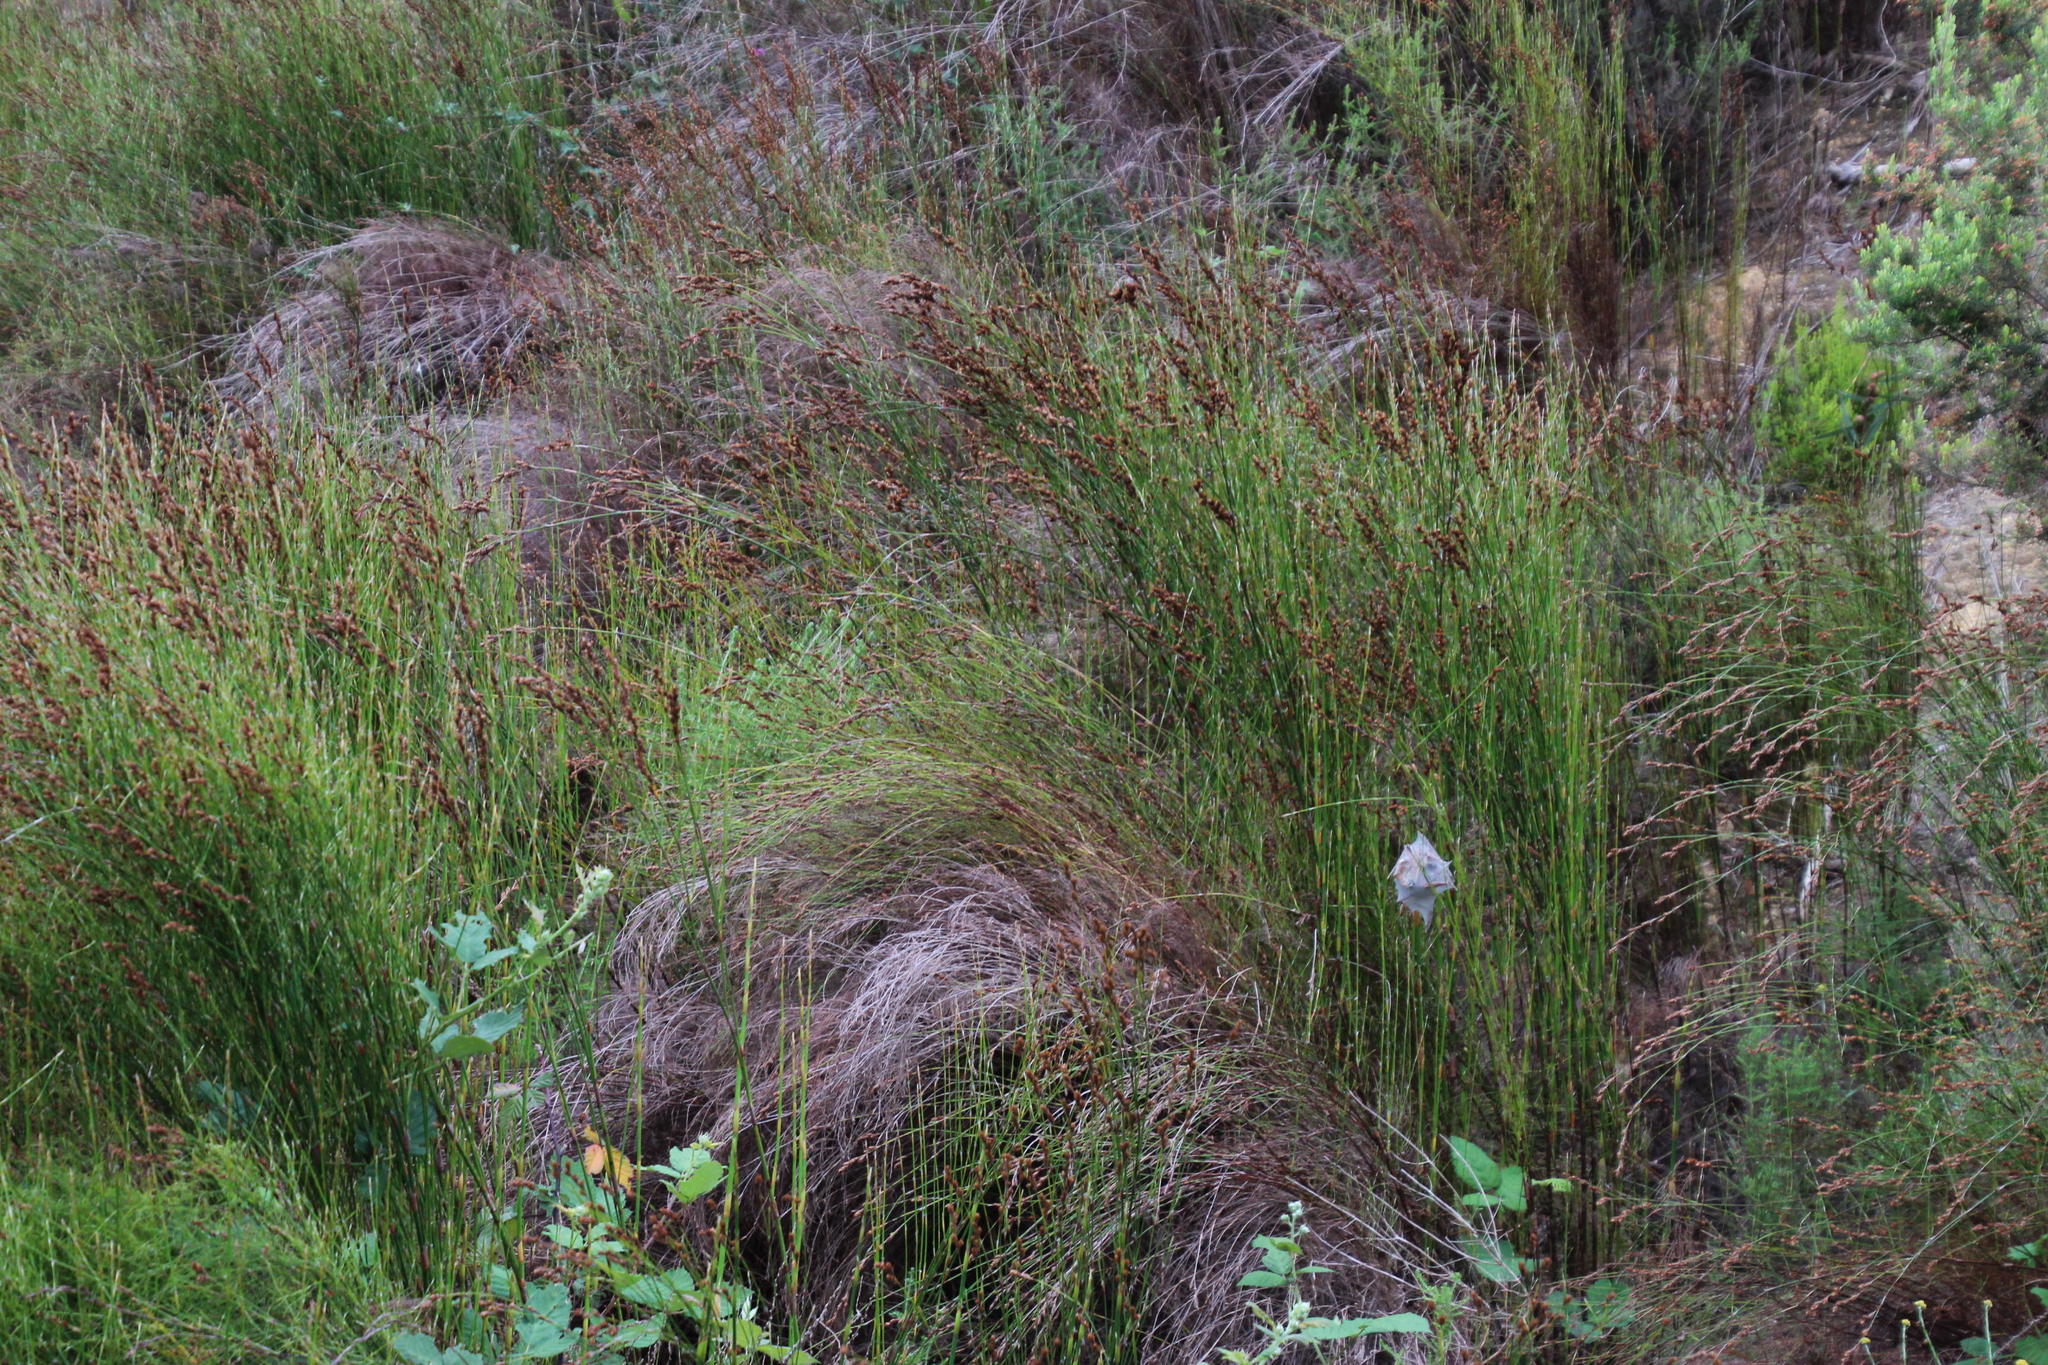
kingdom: Plantae
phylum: Tracheophyta
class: Liliopsida
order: Poales
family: Restionaceae
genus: Restio
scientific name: Restio multiflorus
